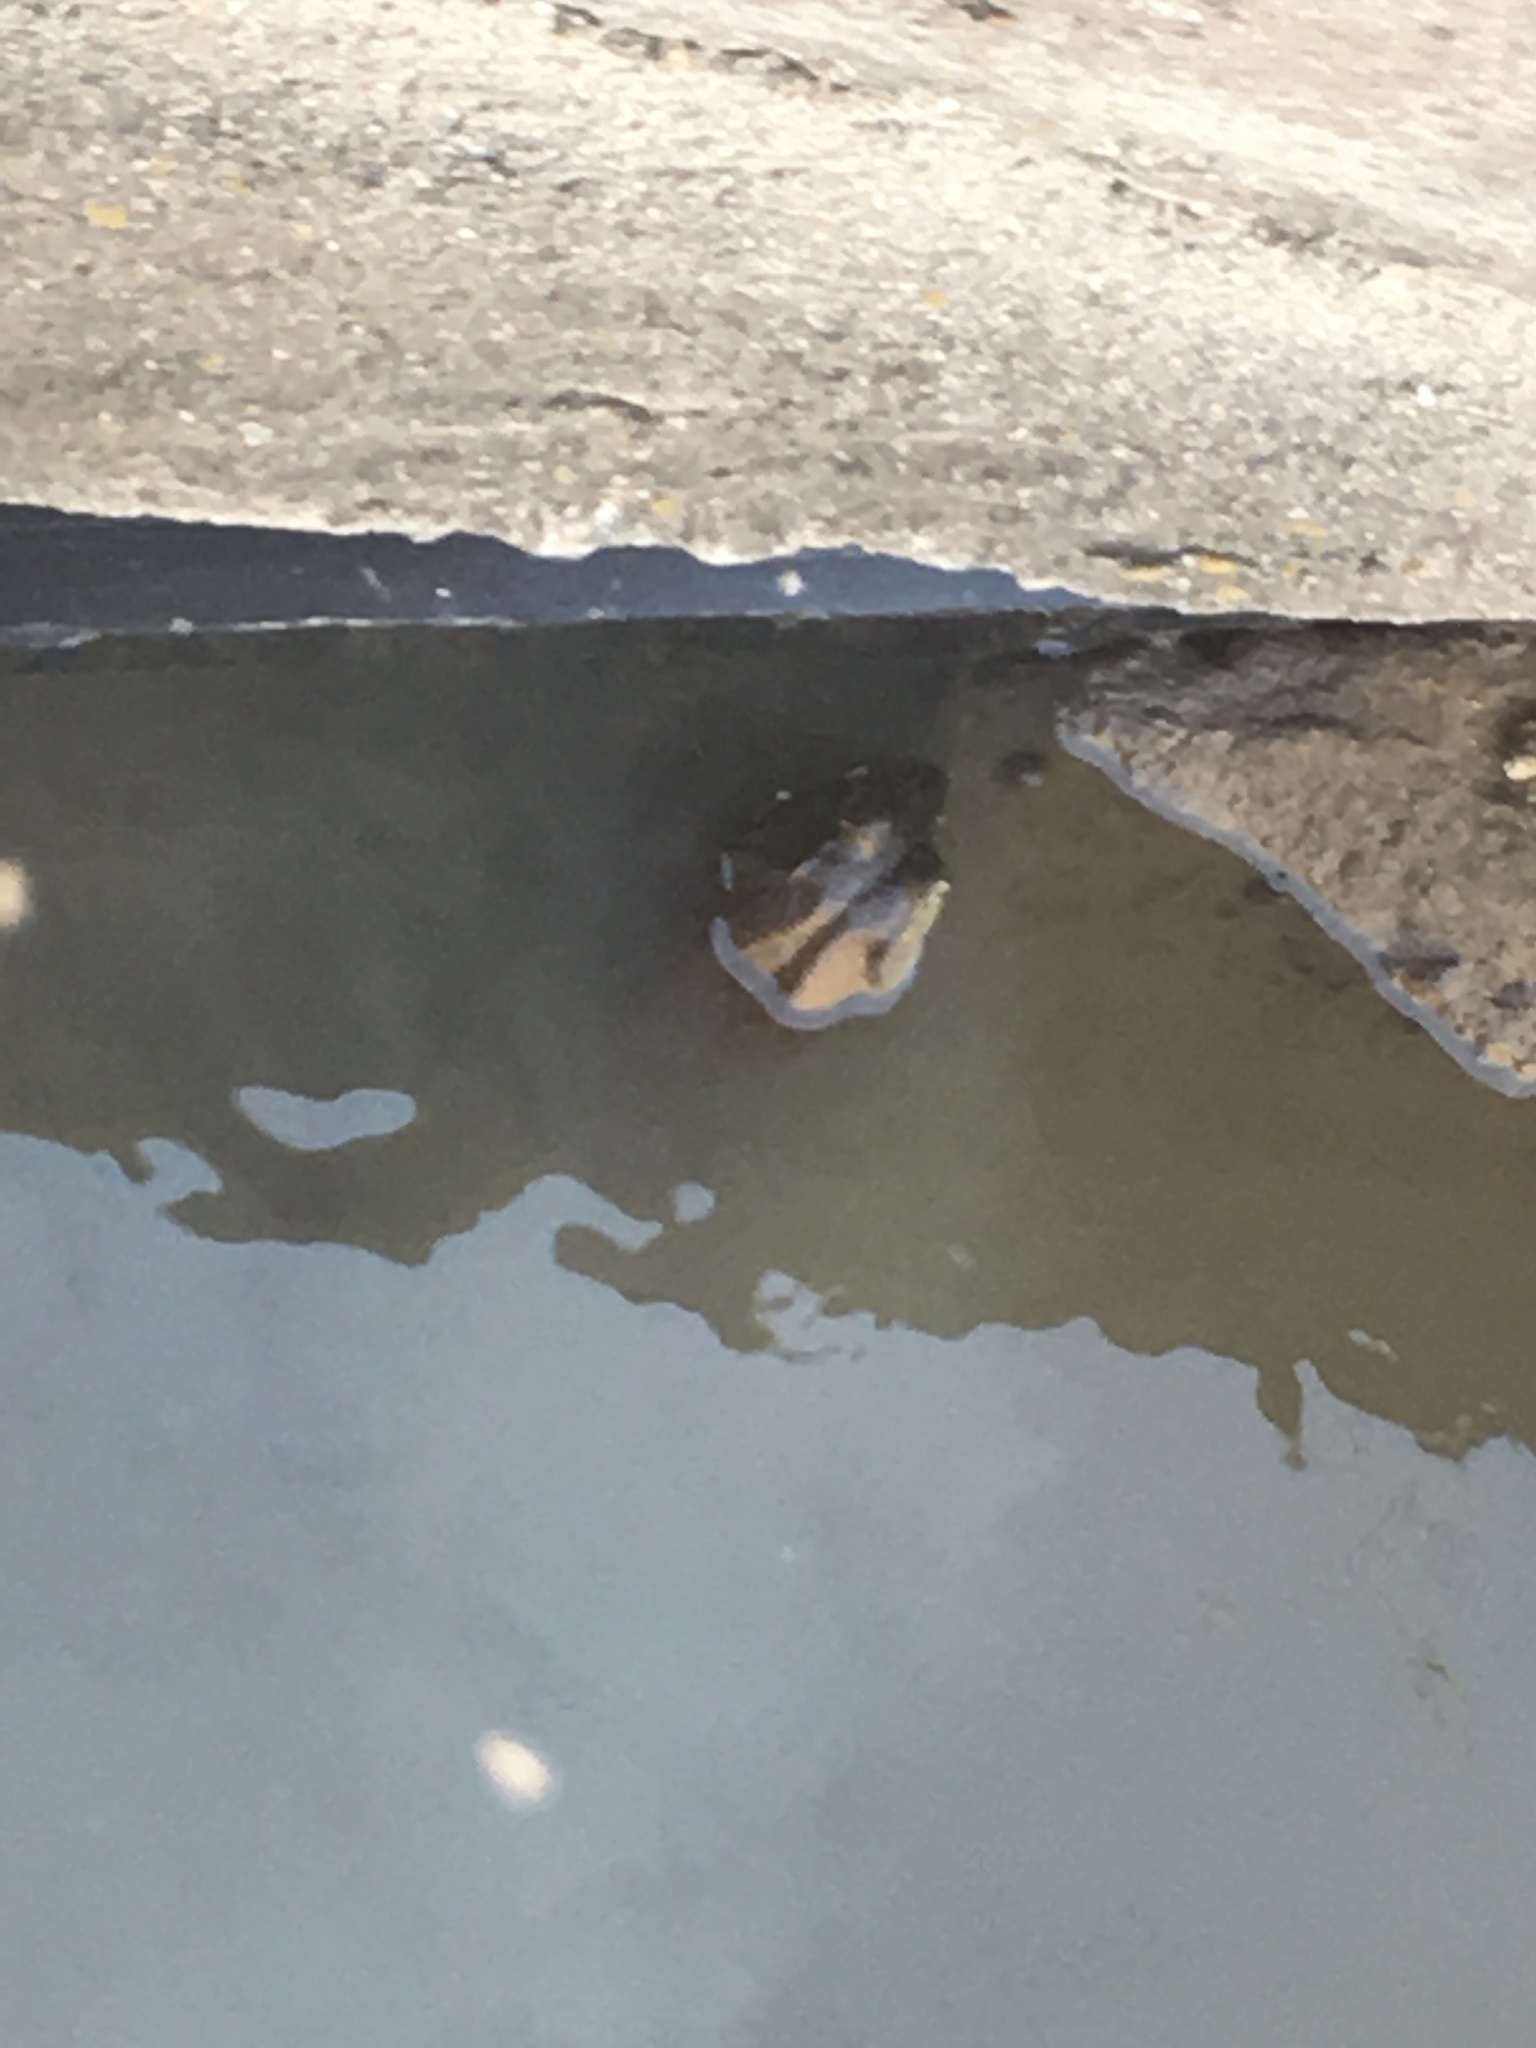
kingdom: Animalia
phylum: Chordata
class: Amphibia
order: Anura
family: Ranidae
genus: Lithobates
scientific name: Lithobates catesbeianus
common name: American bullfrog
